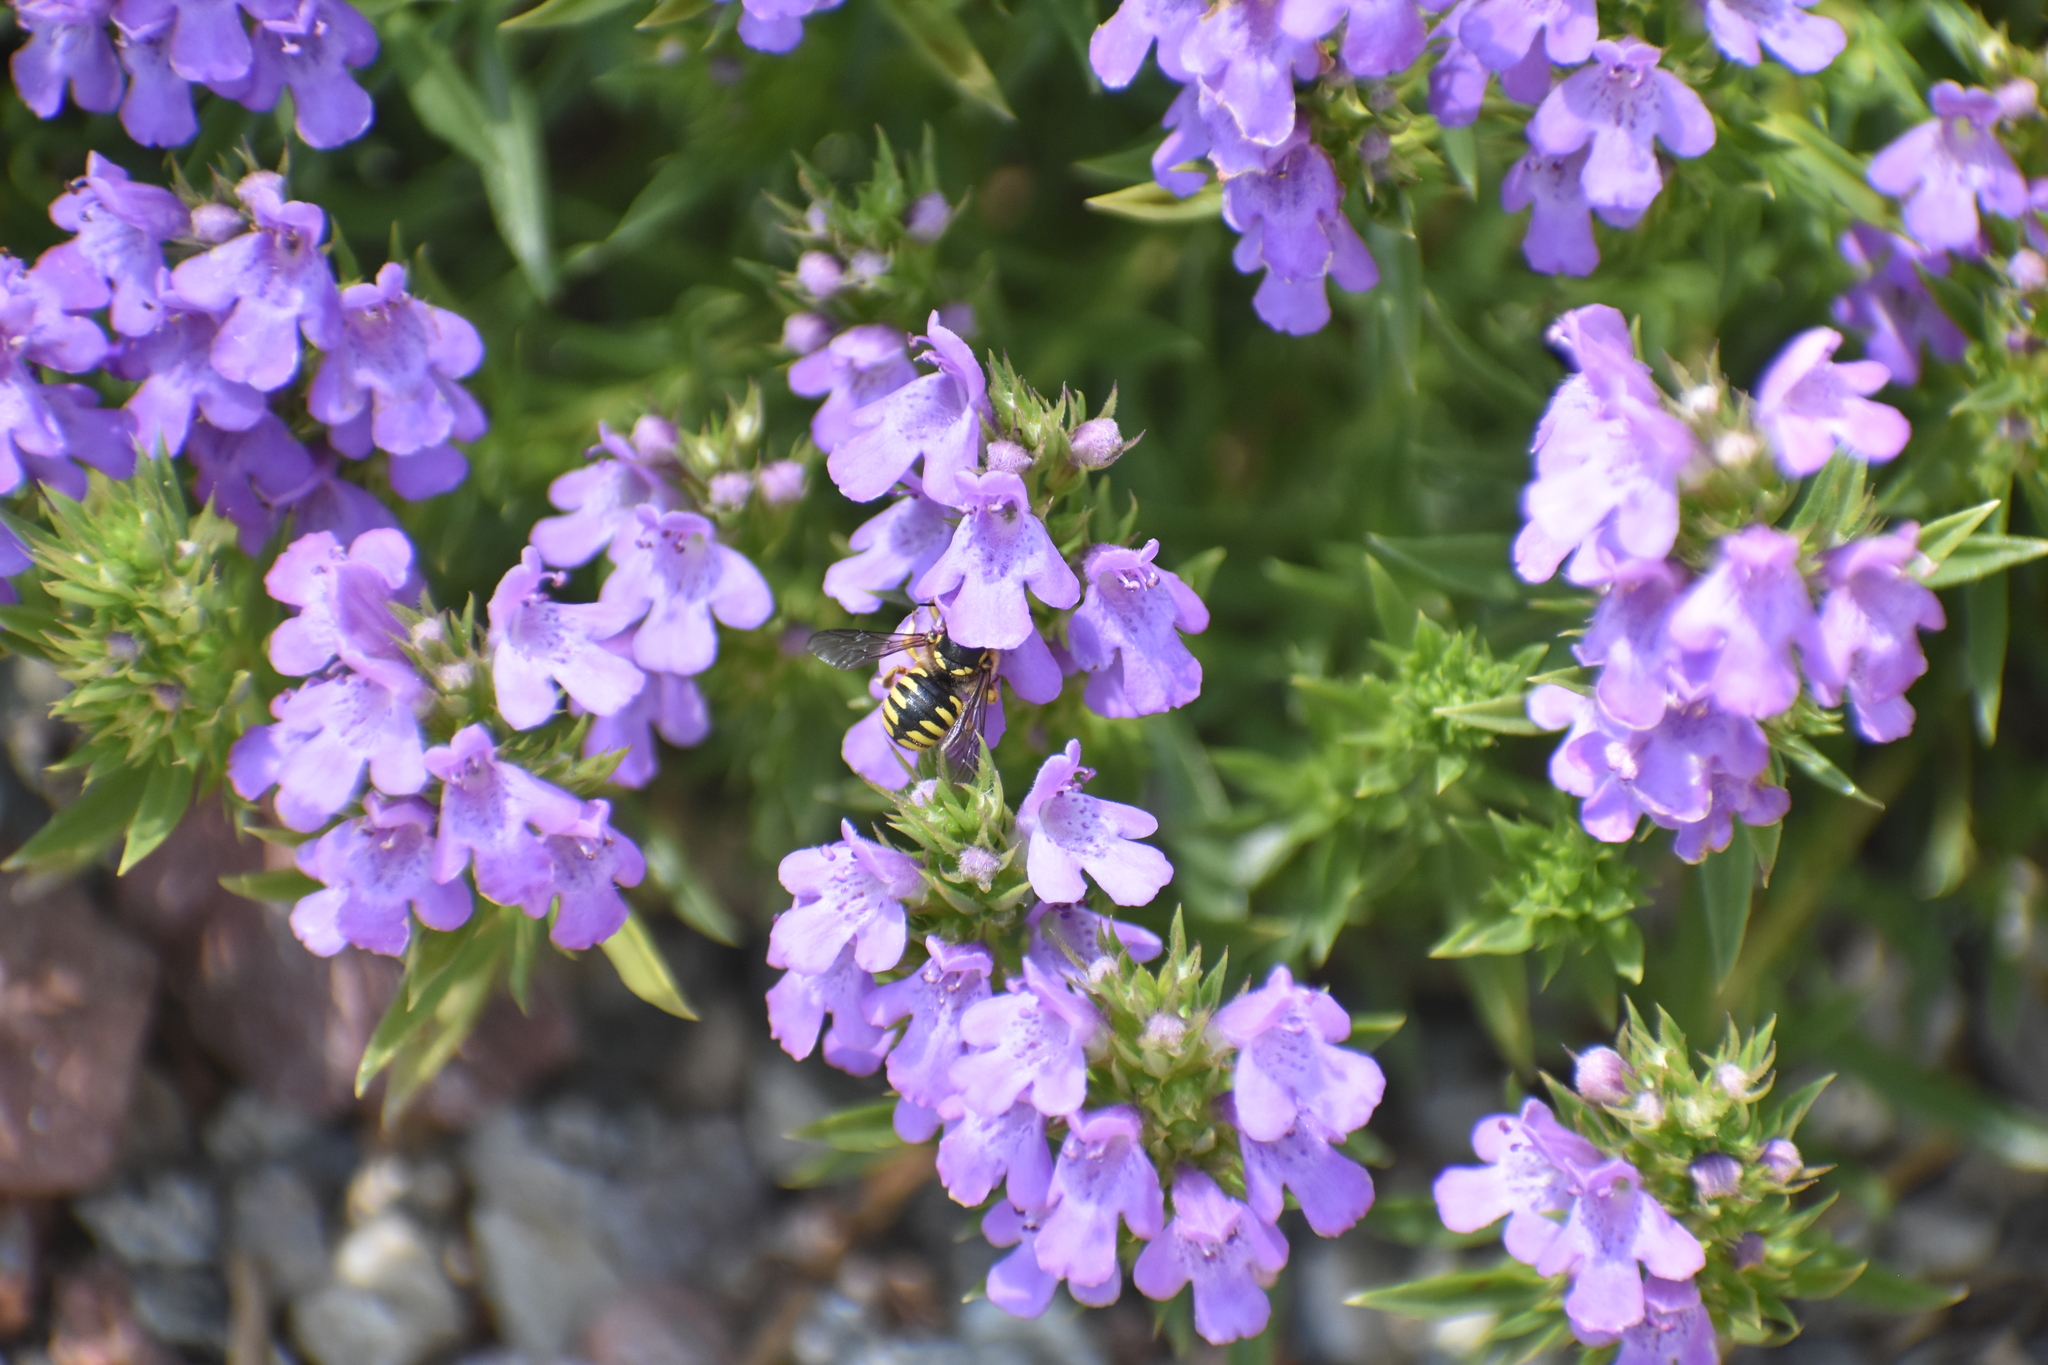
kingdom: Animalia
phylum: Arthropoda
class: Insecta
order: Hymenoptera
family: Megachilidae
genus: Anthidium
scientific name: Anthidium manicatum
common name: Wool carder bee
